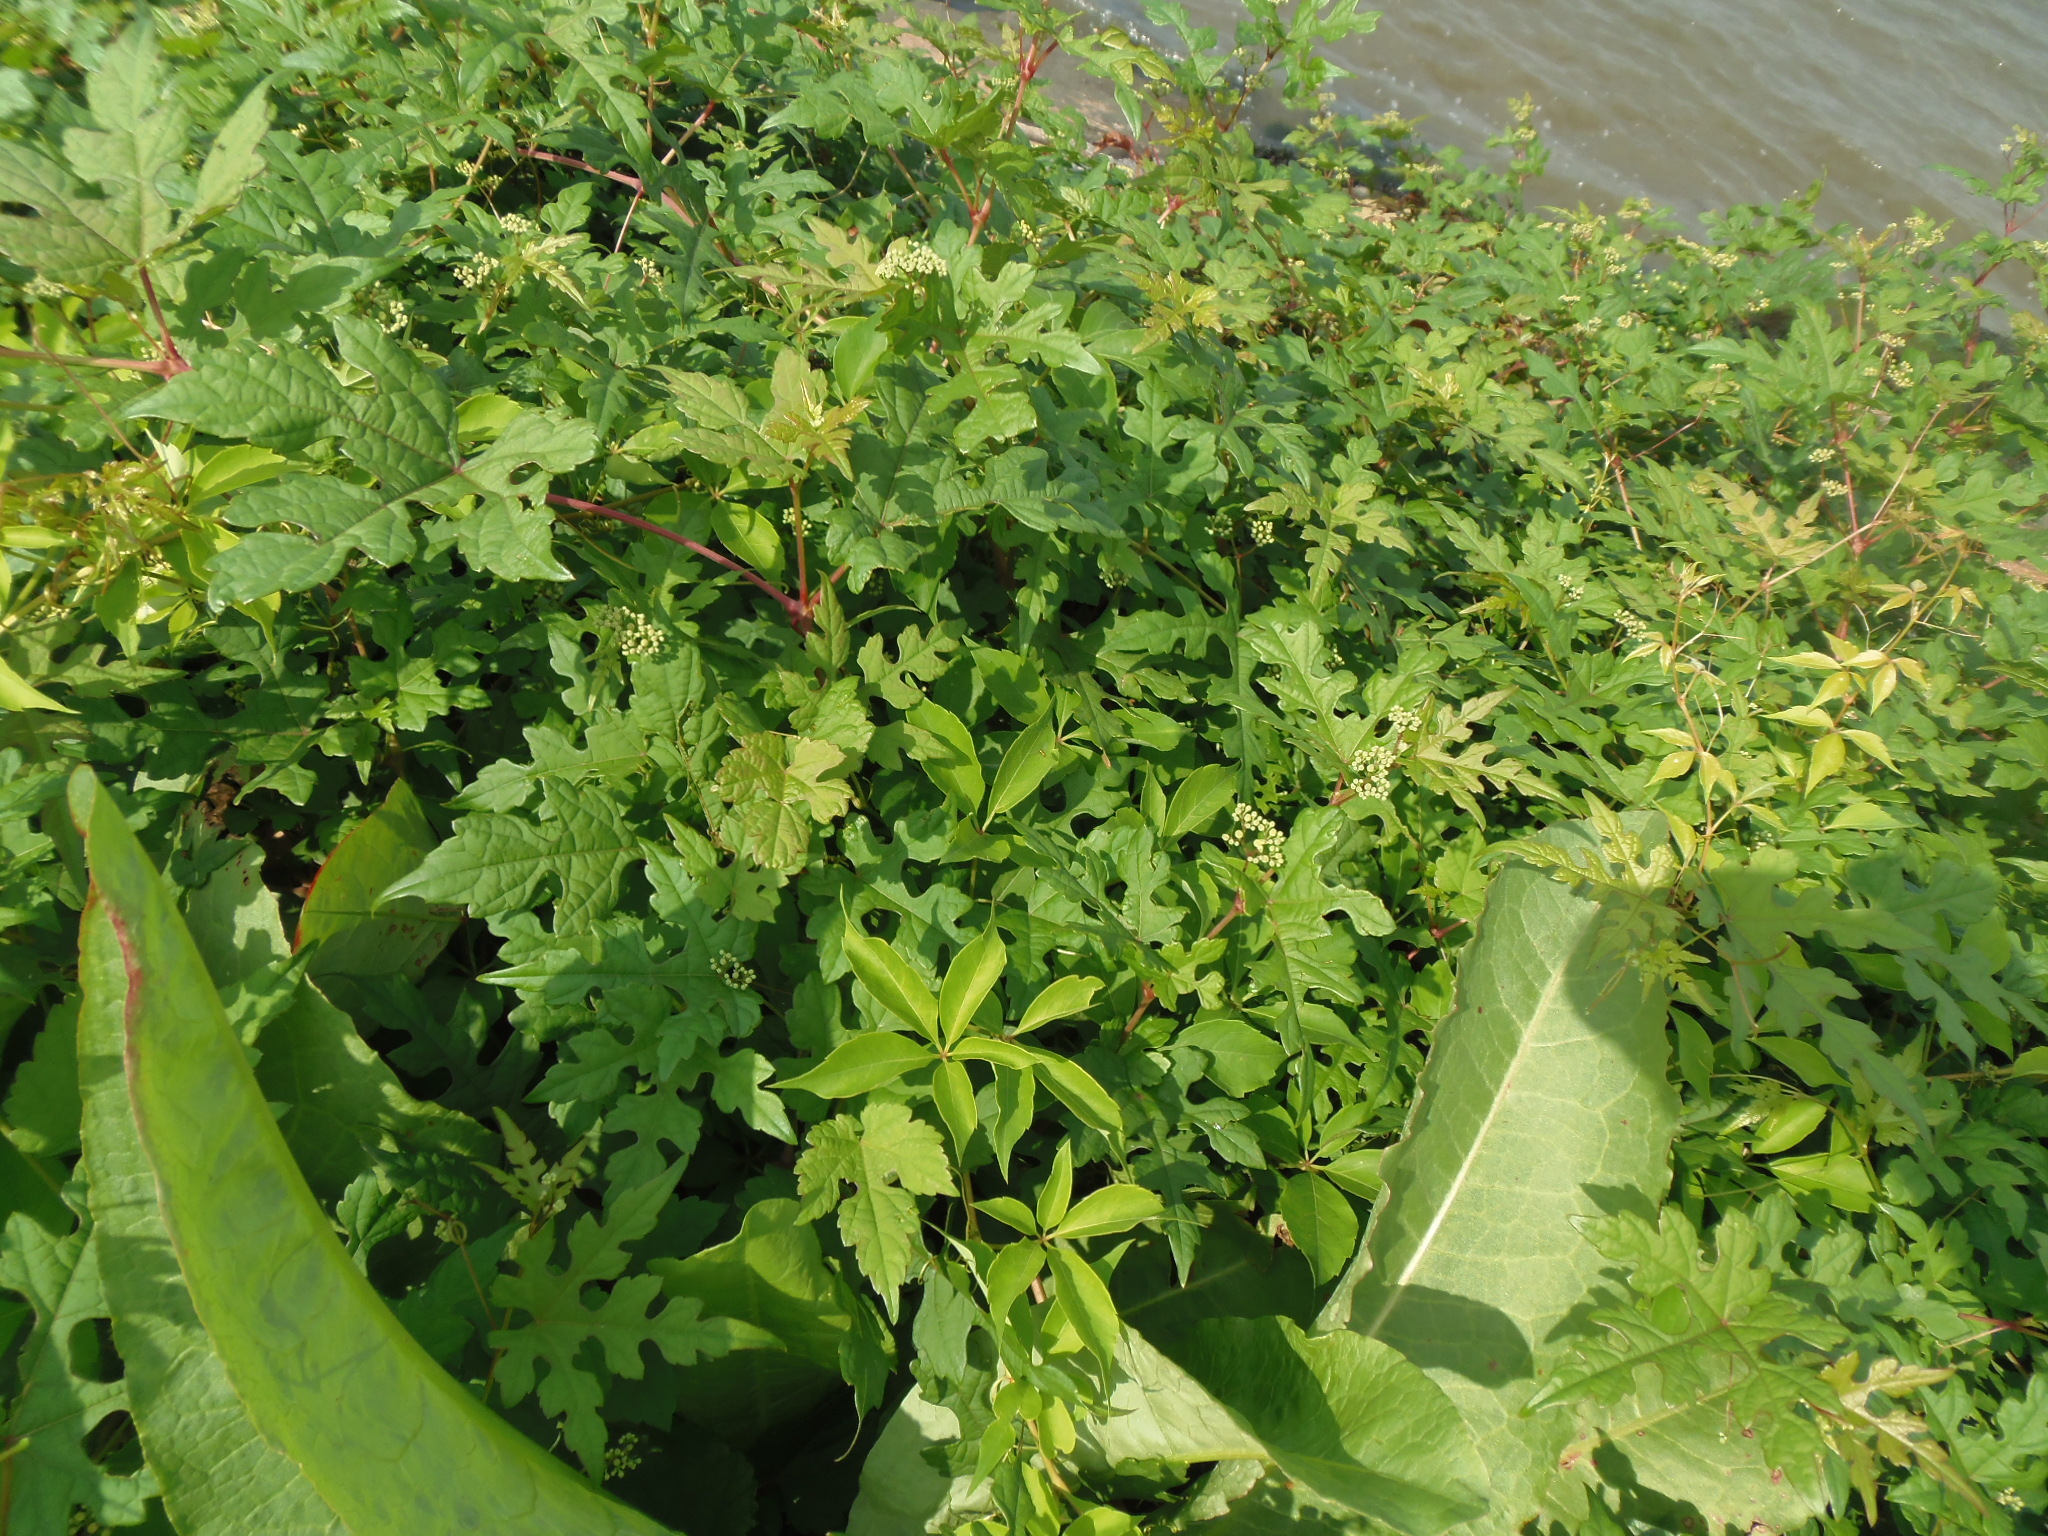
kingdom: Plantae
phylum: Tracheophyta
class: Magnoliopsida
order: Vitales
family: Vitaceae
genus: Ampelopsis
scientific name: Ampelopsis glandulosa
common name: Amur peppervine
